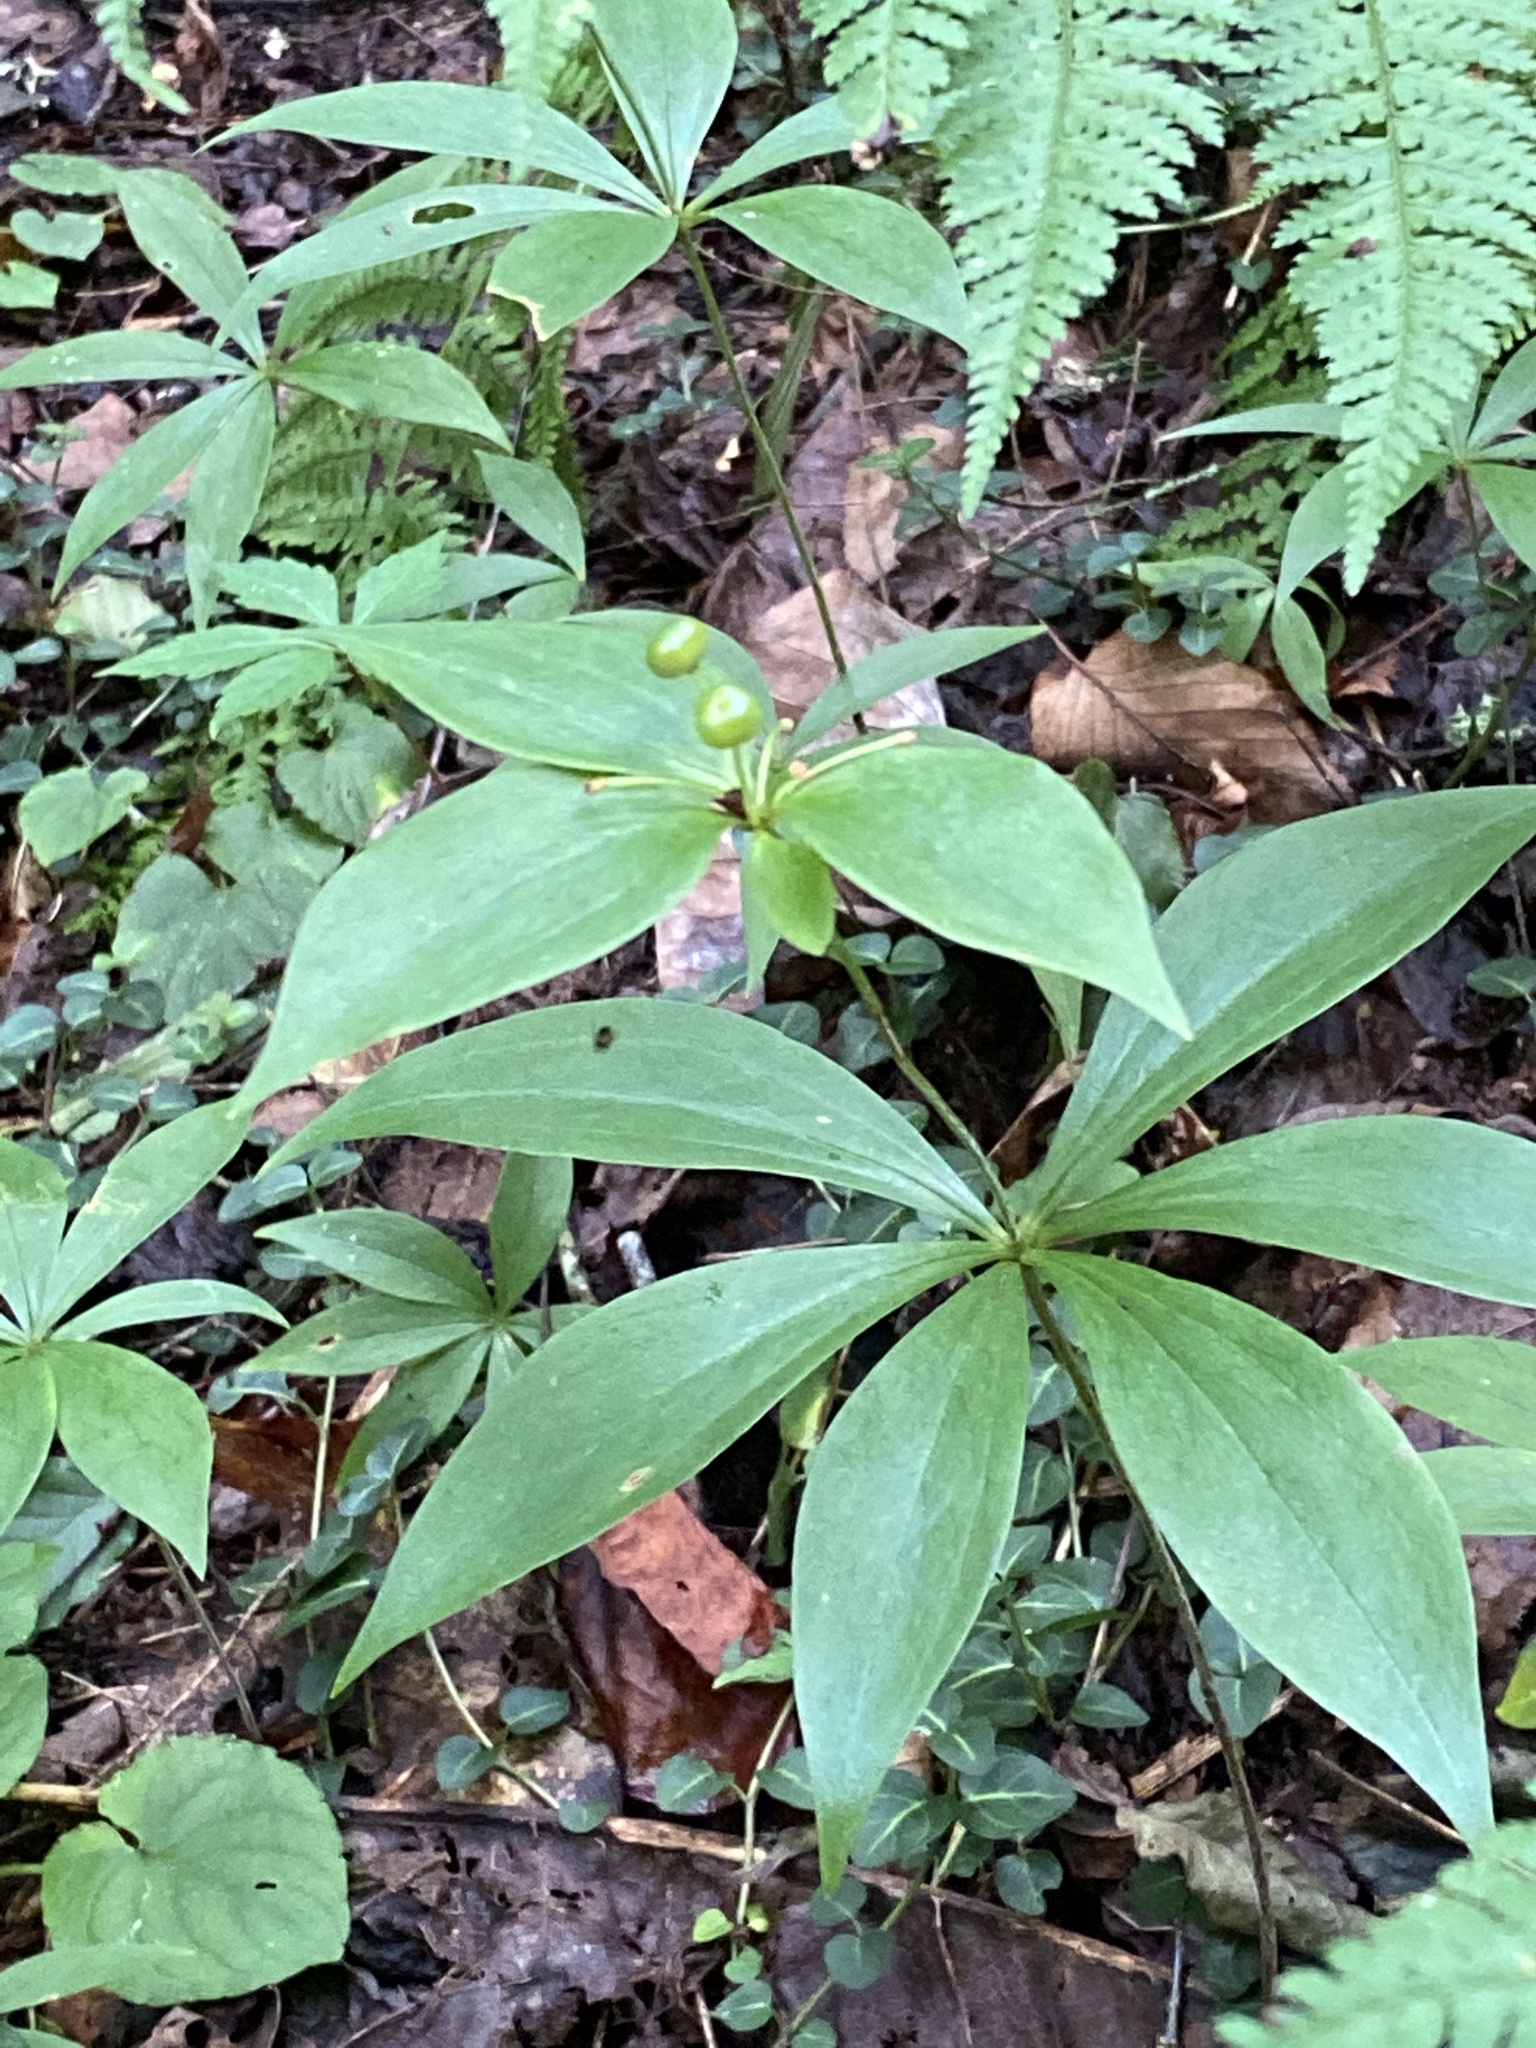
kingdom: Plantae
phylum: Tracheophyta
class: Liliopsida
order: Liliales
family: Liliaceae
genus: Medeola
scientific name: Medeola virginiana
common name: Indian cucumber-root
